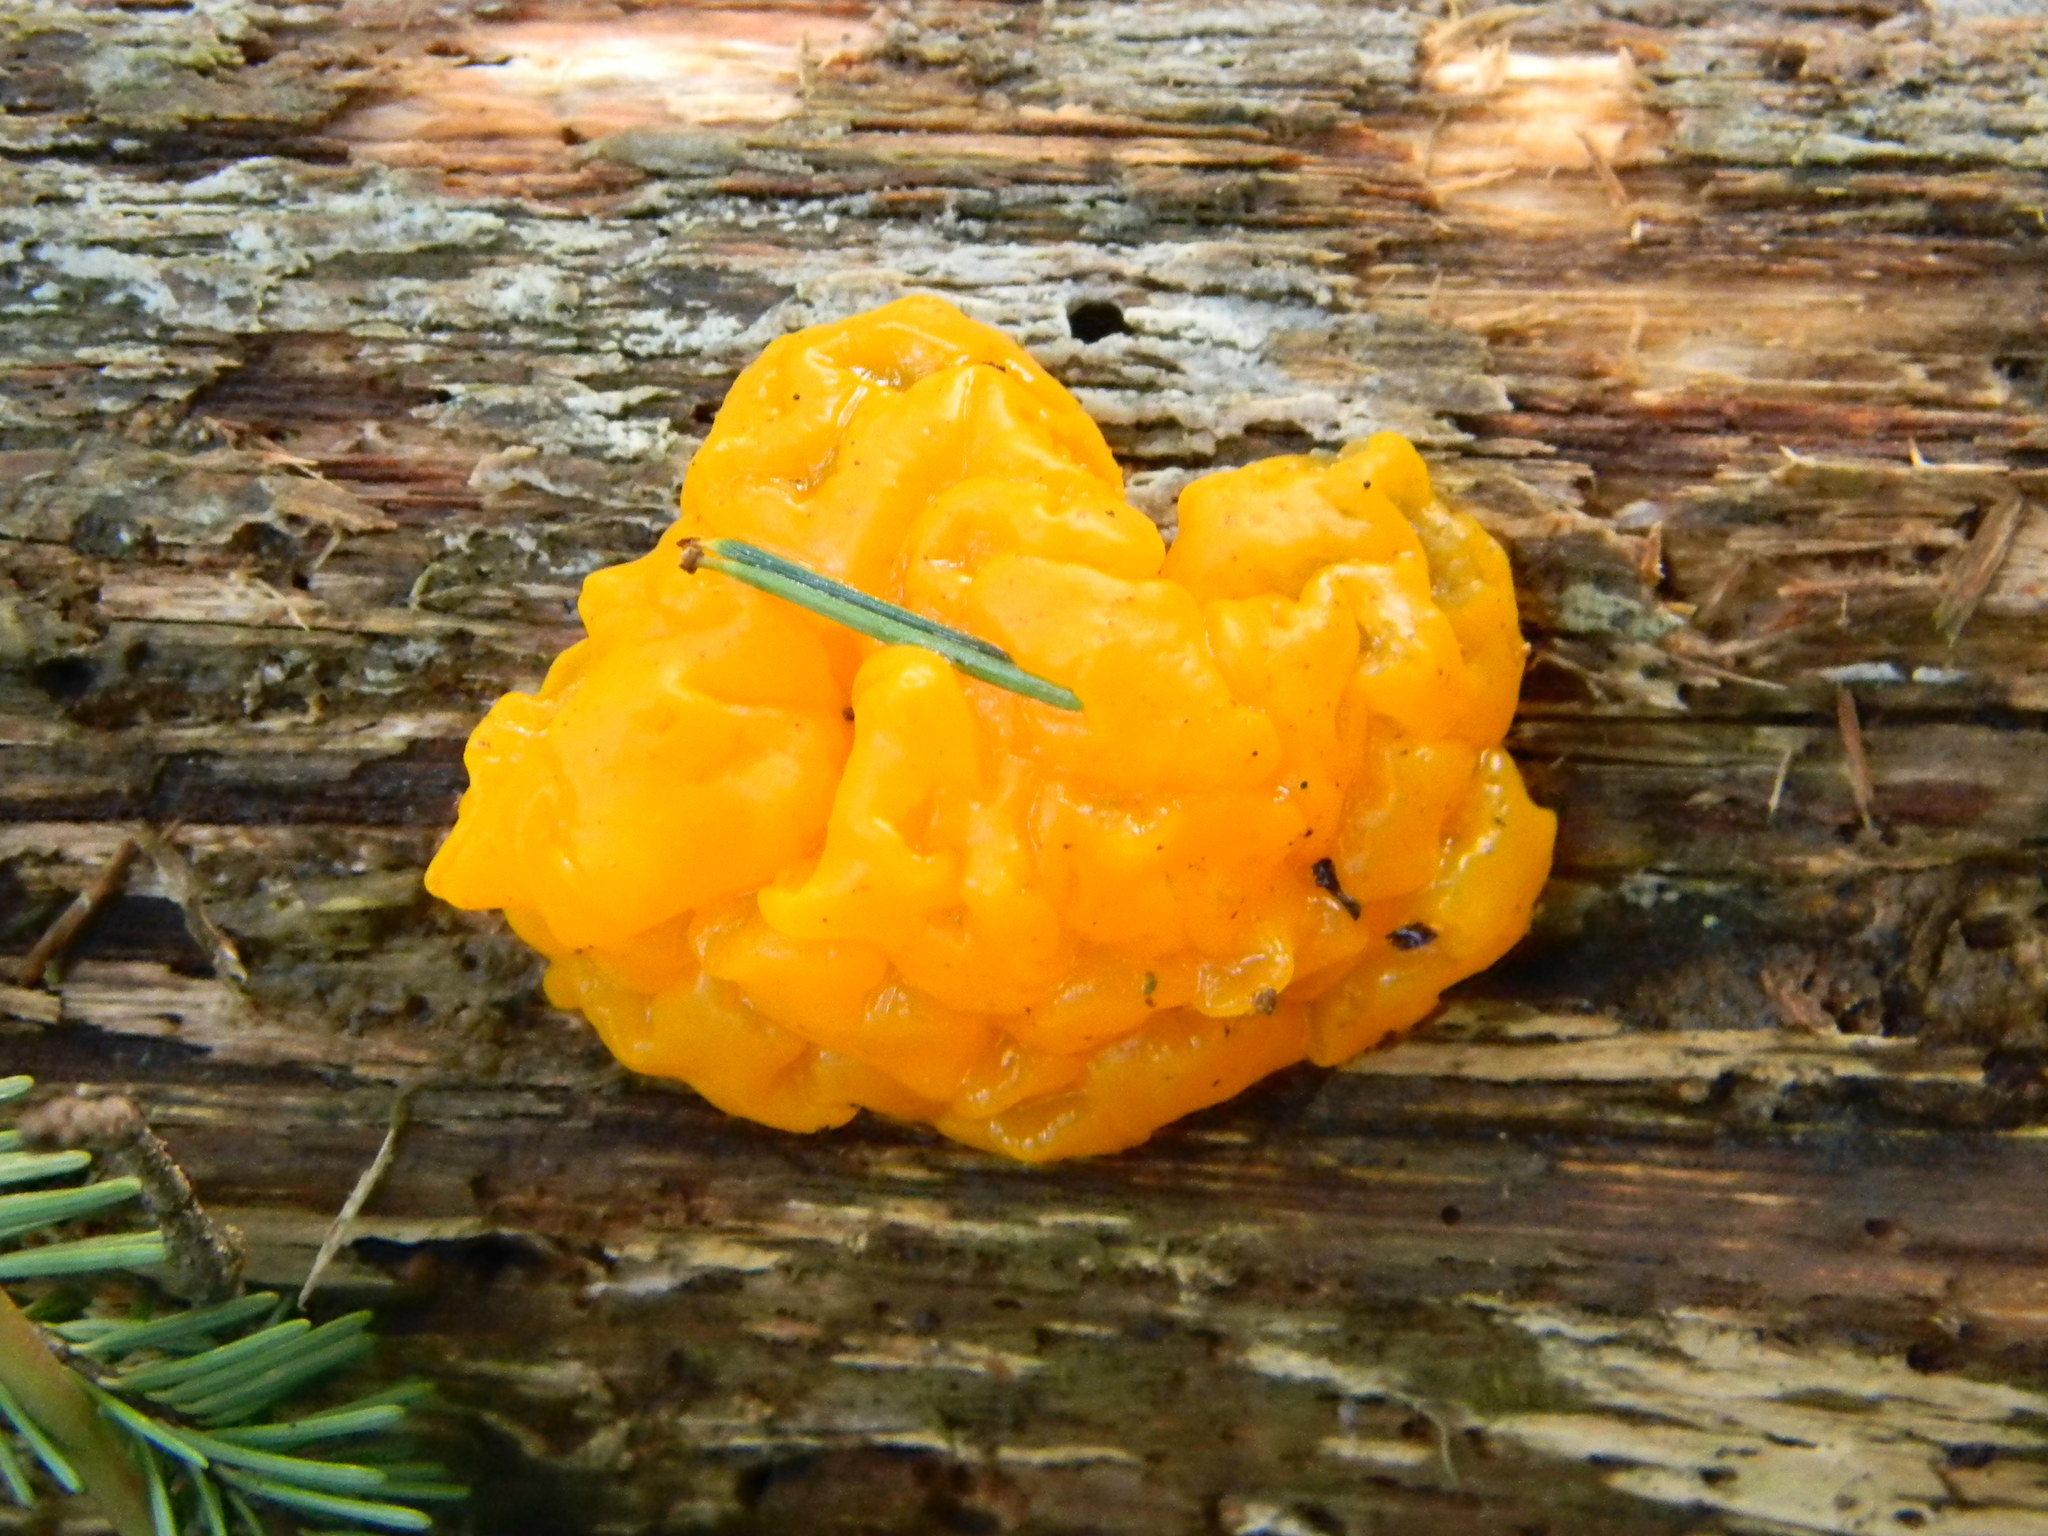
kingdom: Fungi
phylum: Basidiomycota
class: Dacrymycetes
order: Dacrymycetales
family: Dacrymycetaceae
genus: Dacrymyces
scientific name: Dacrymyces chrysospermus
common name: Orange jelly spot
